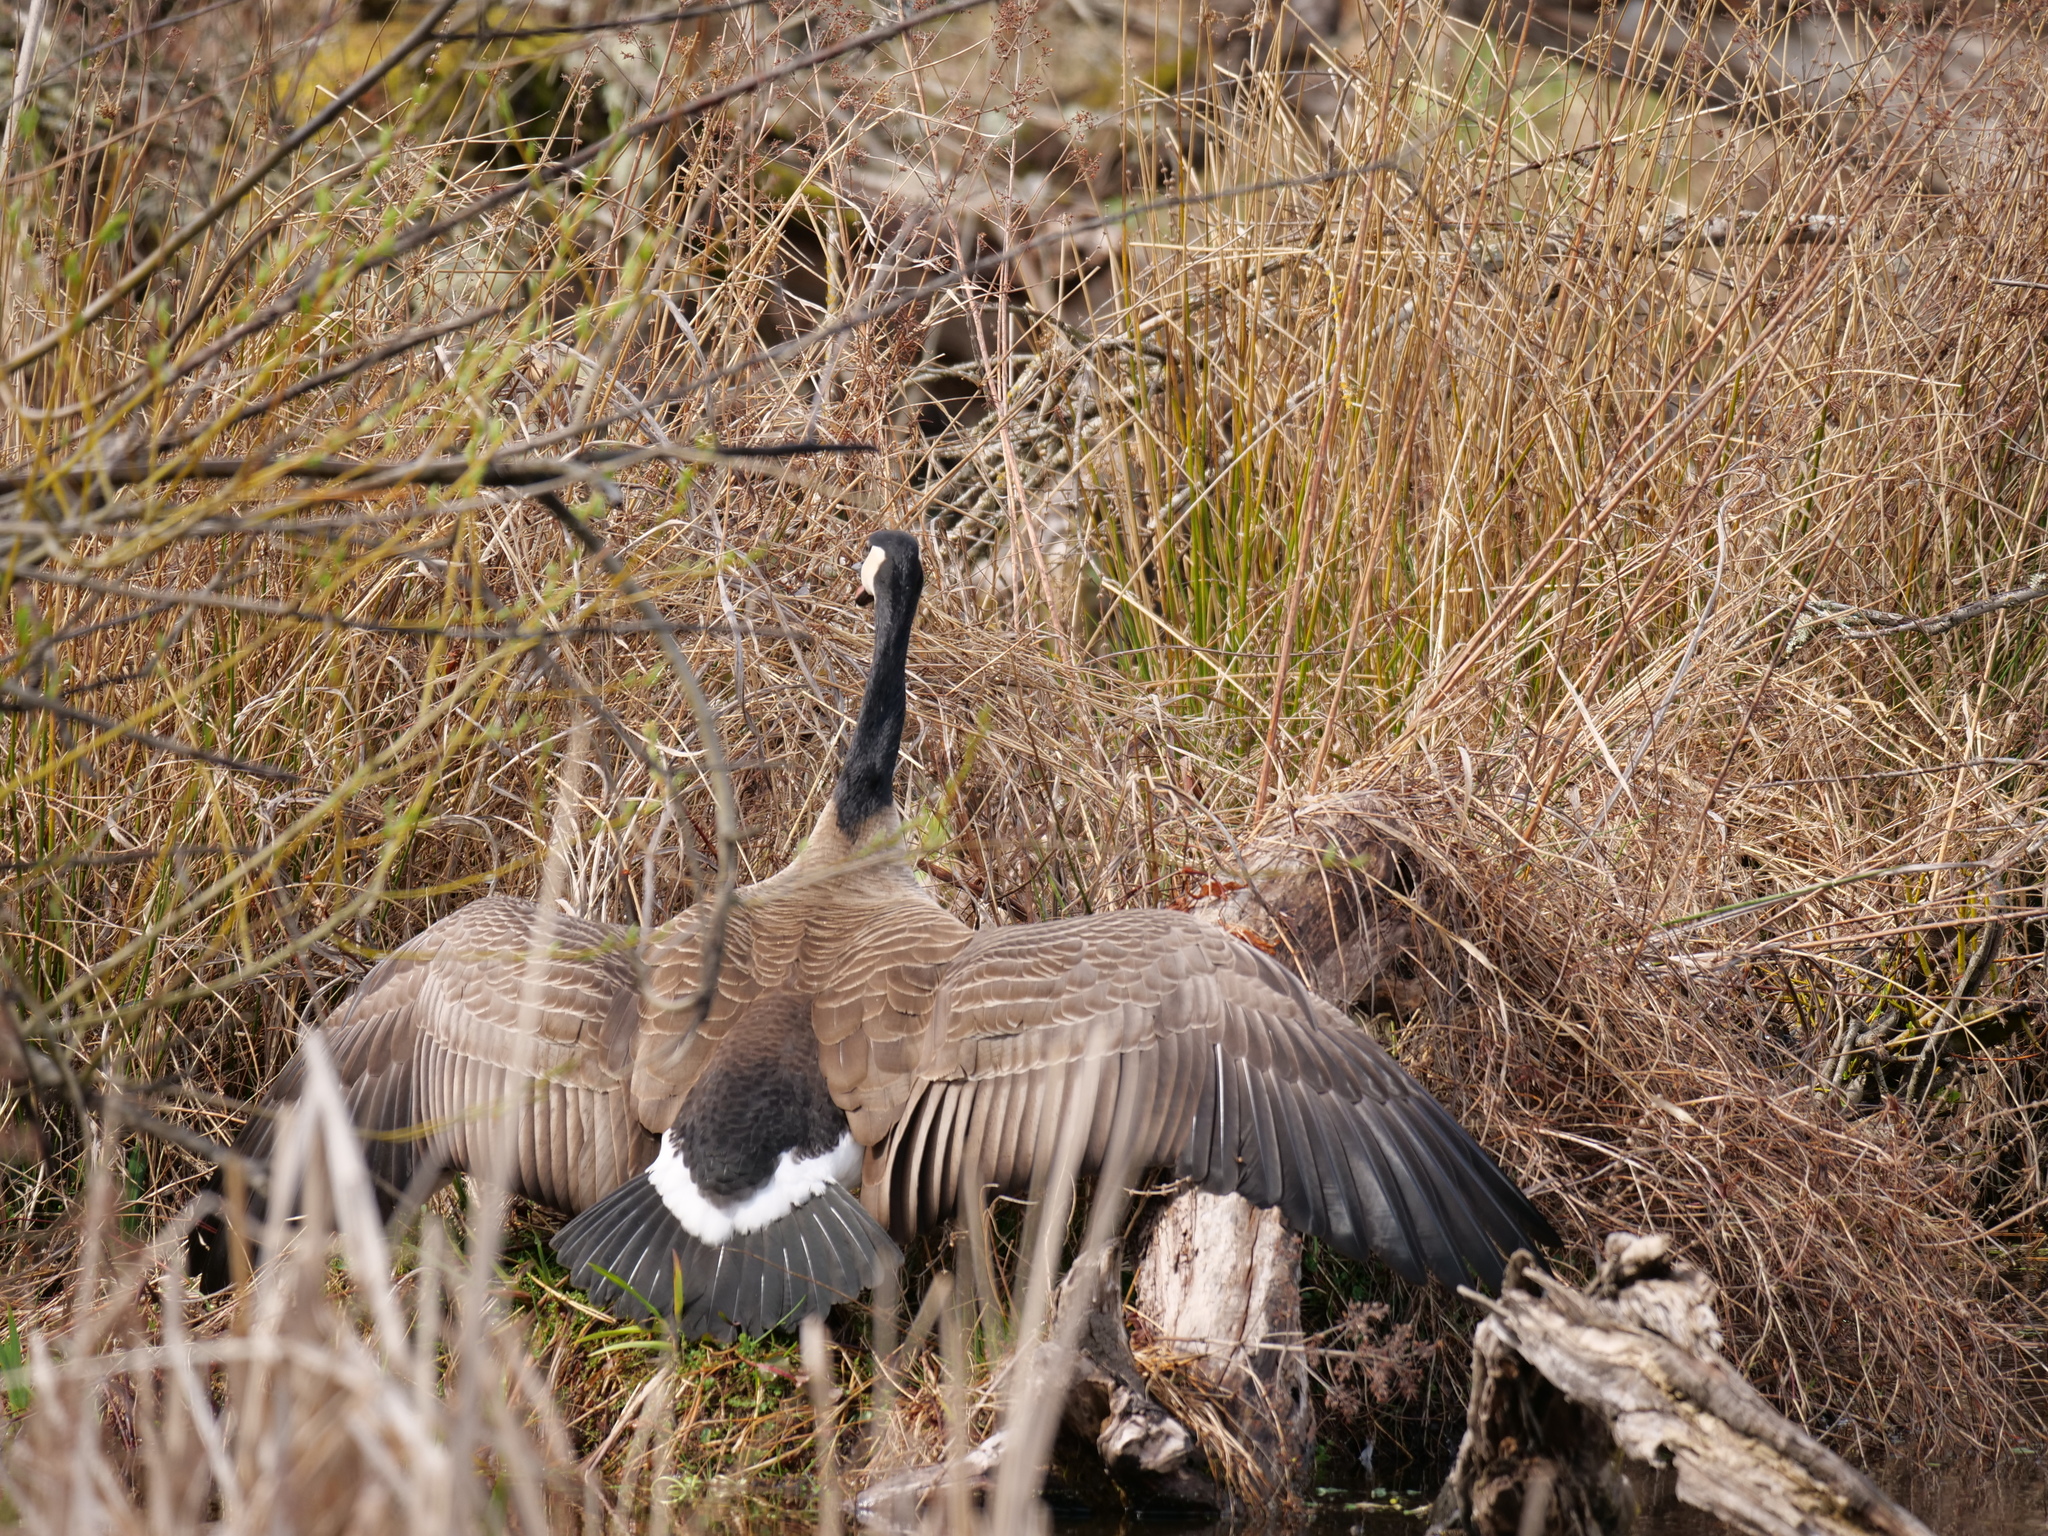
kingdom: Animalia
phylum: Chordata
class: Aves
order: Anseriformes
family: Anatidae
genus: Branta
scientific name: Branta canadensis
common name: Canada goose
